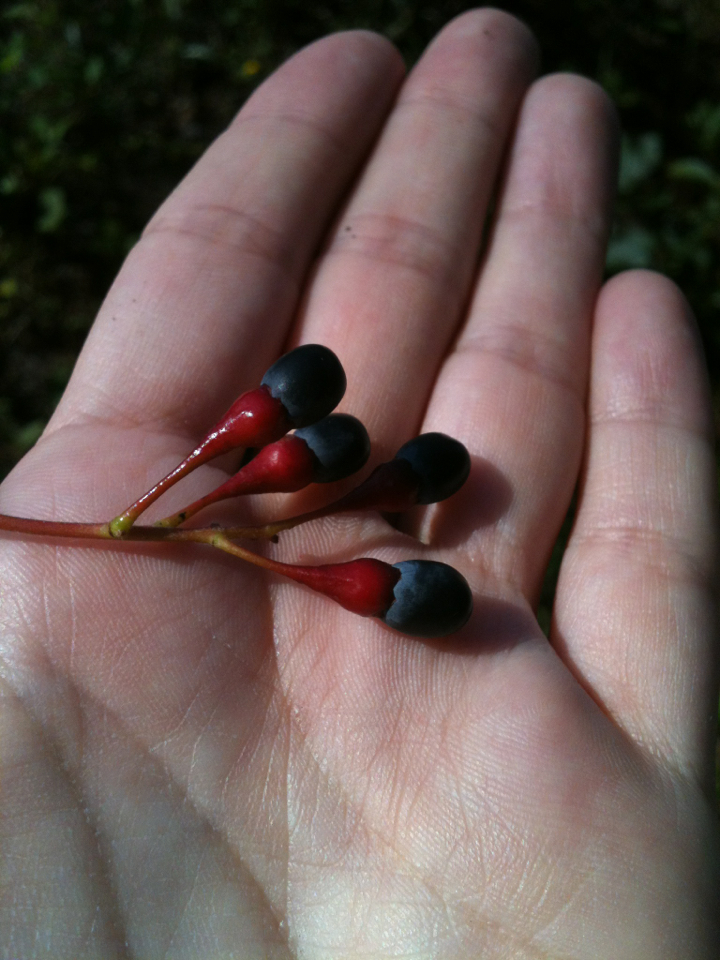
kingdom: Plantae
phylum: Tracheophyta
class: Magnoliopsida
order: Laurales
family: Lauraceae
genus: Sassafras
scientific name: Sassafras albidum
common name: Sassafras
